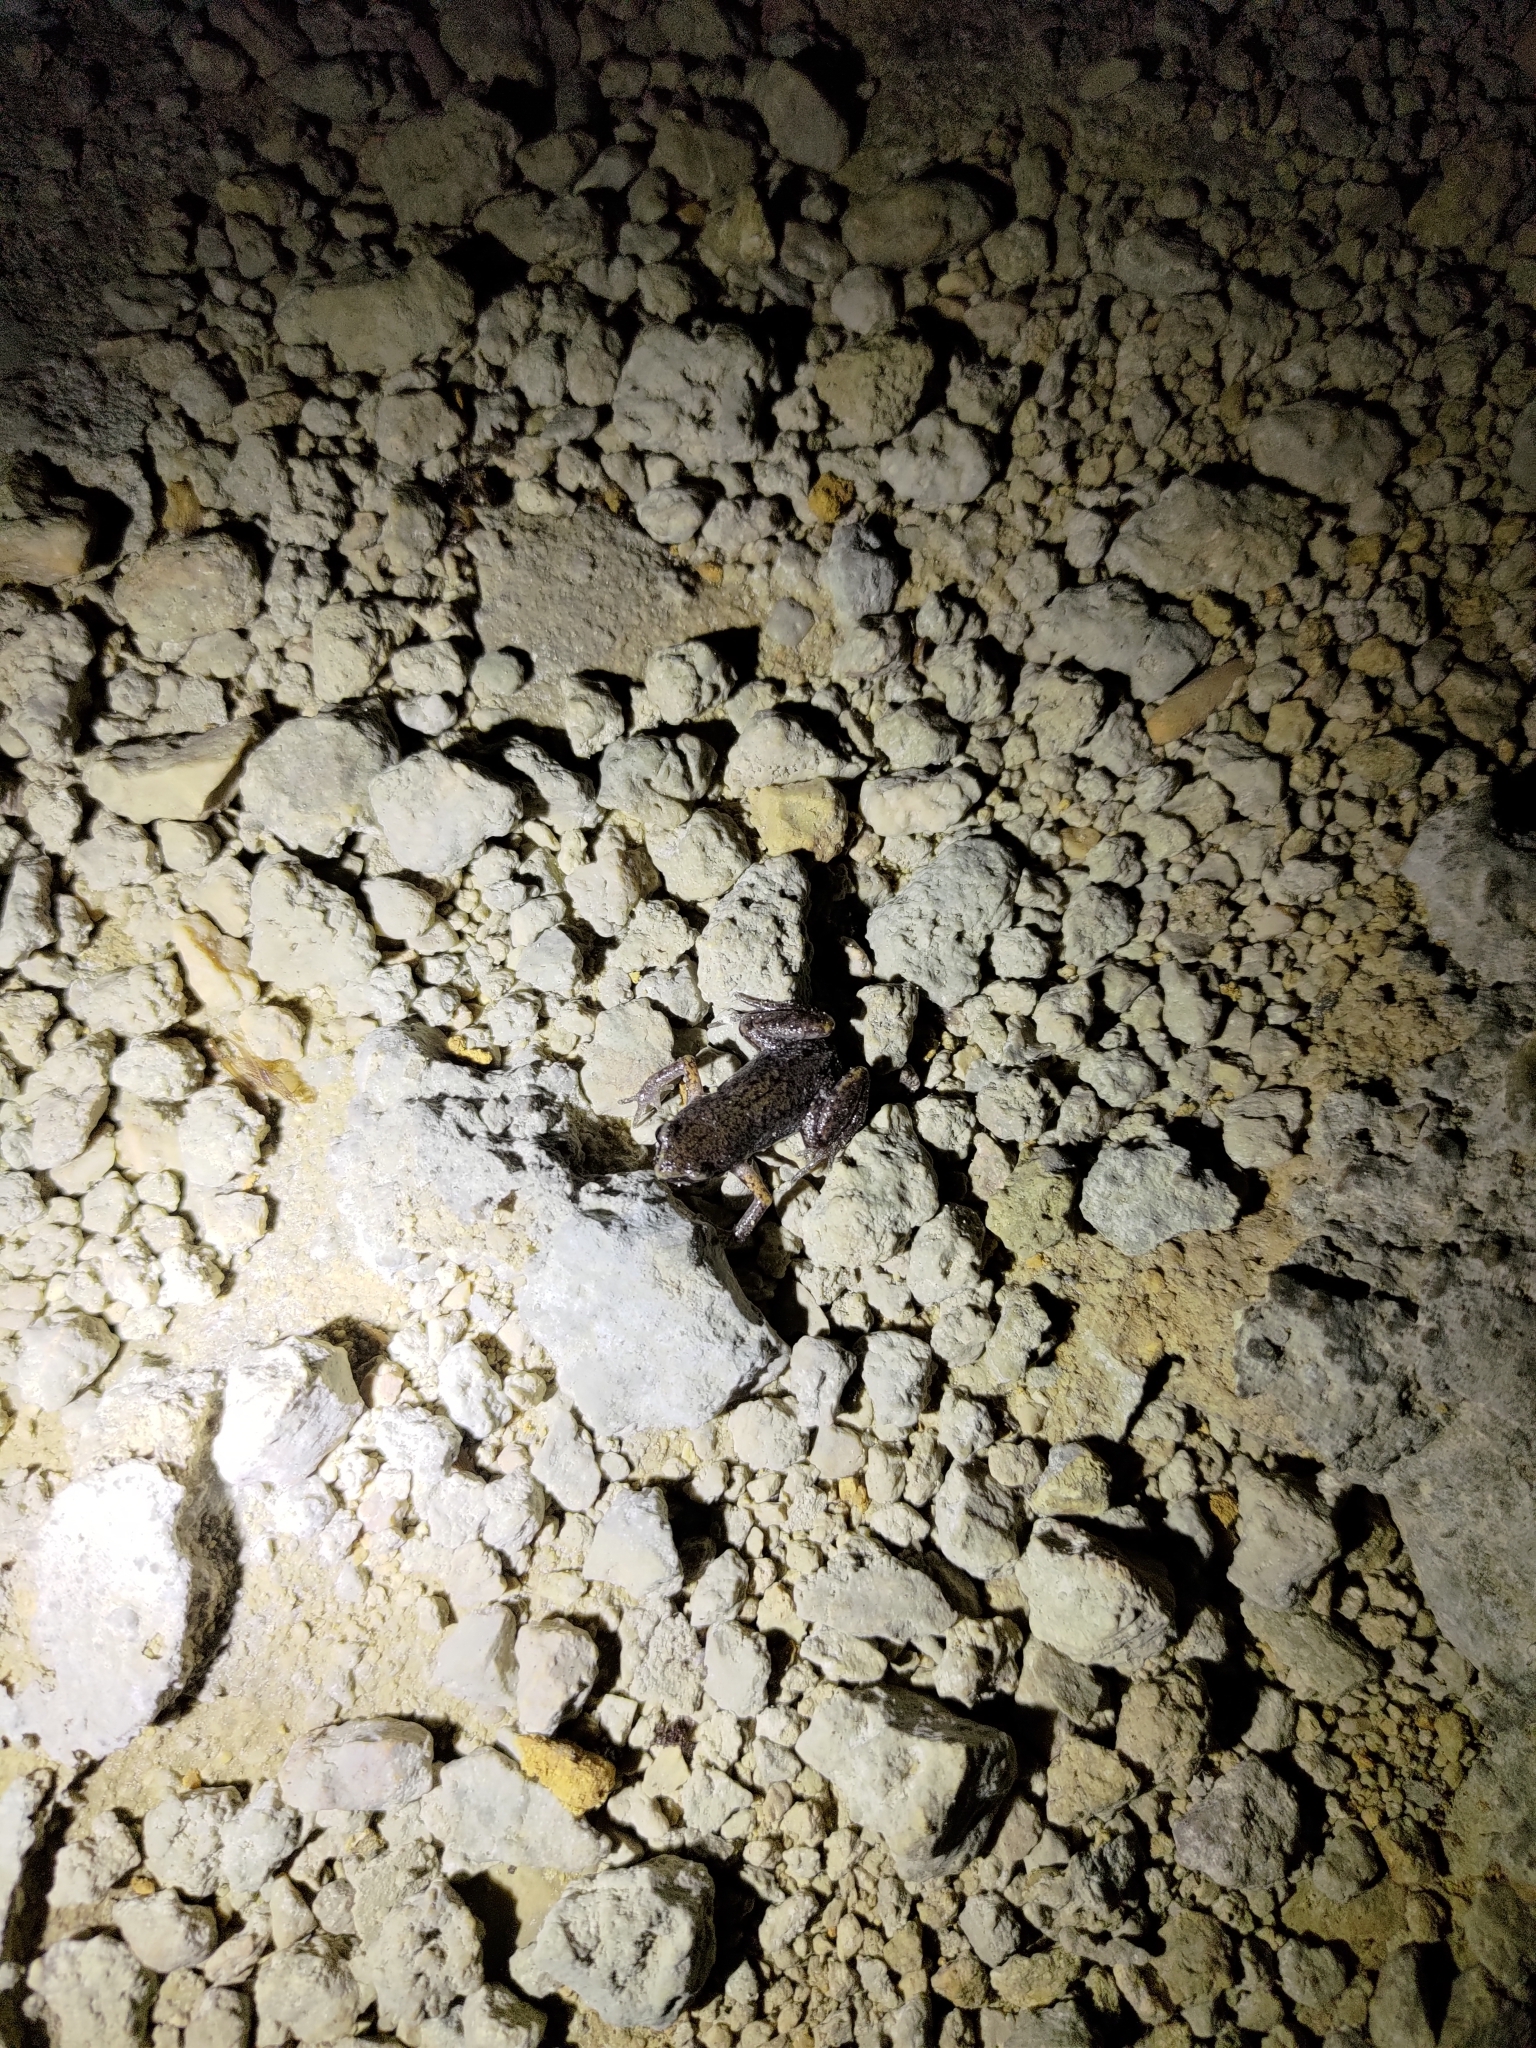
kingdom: Animalia
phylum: Chordata
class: Amphibia
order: Anura
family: Microhylidae
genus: Micryletta
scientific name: Micryletta steinegeri
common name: Stejneger's paddy frog
